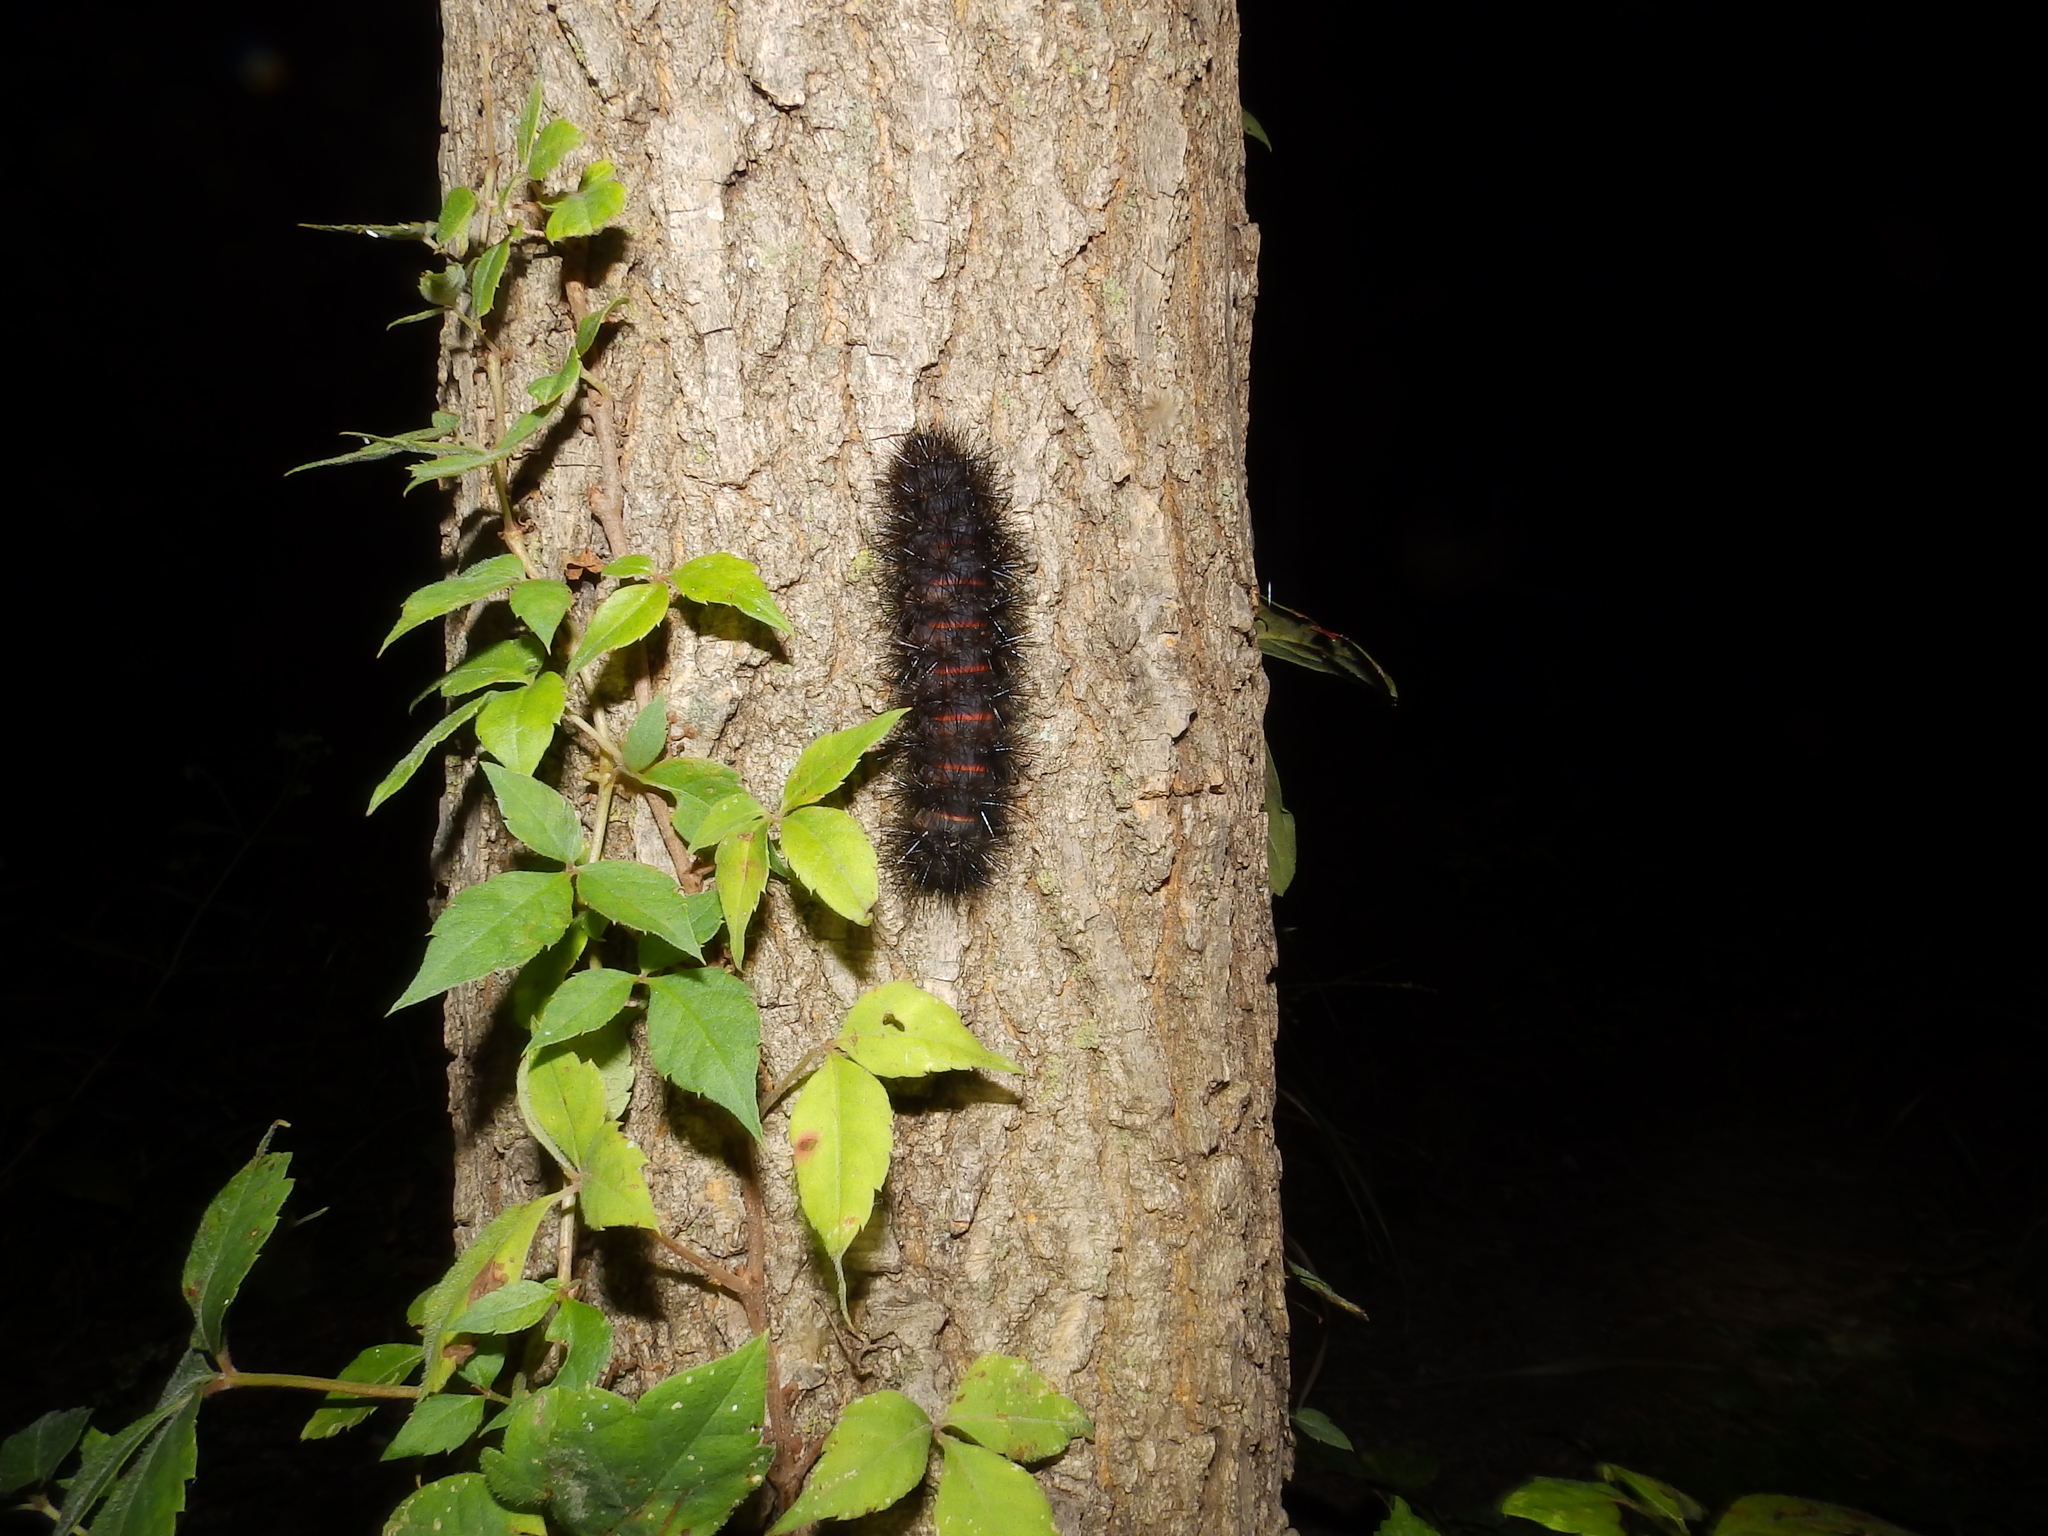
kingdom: Animalia
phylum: Arthropoda
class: Insecta
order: Lepidoptera
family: Erebidae
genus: Hypercompe
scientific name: Hypercompe scribonia
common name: Giant leopard moth
